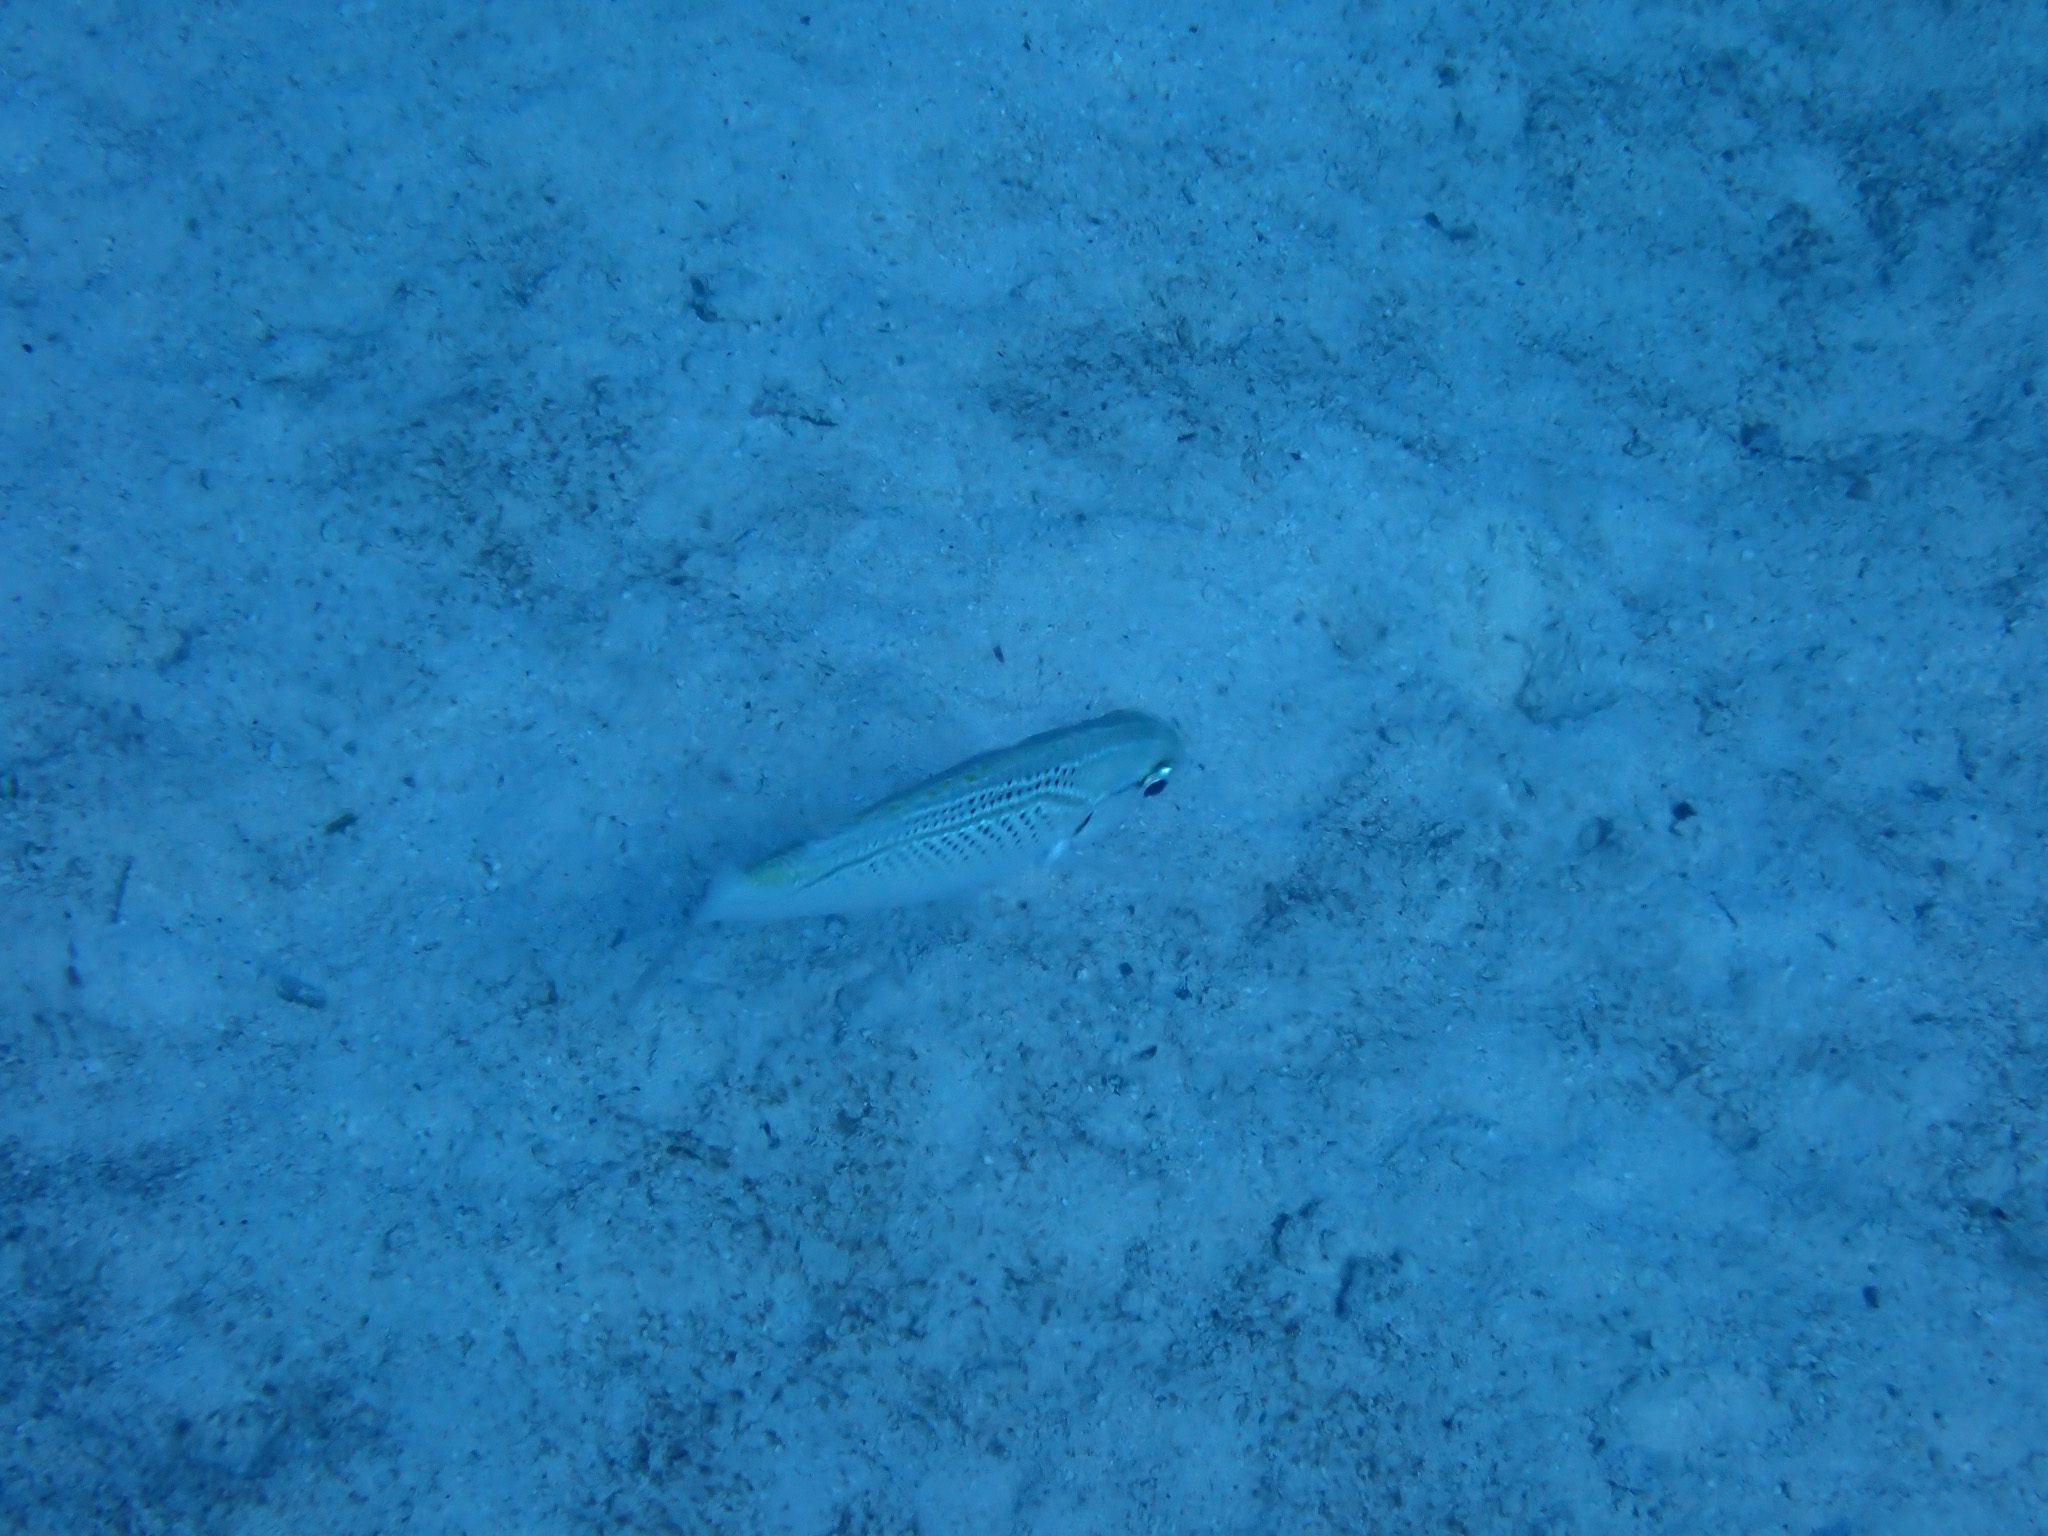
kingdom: Animalia
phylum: Chordata
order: Perciformes
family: Nemipteridae
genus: Scolopsis
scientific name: Scolopsis ghanam
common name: Arabian monocle bream
